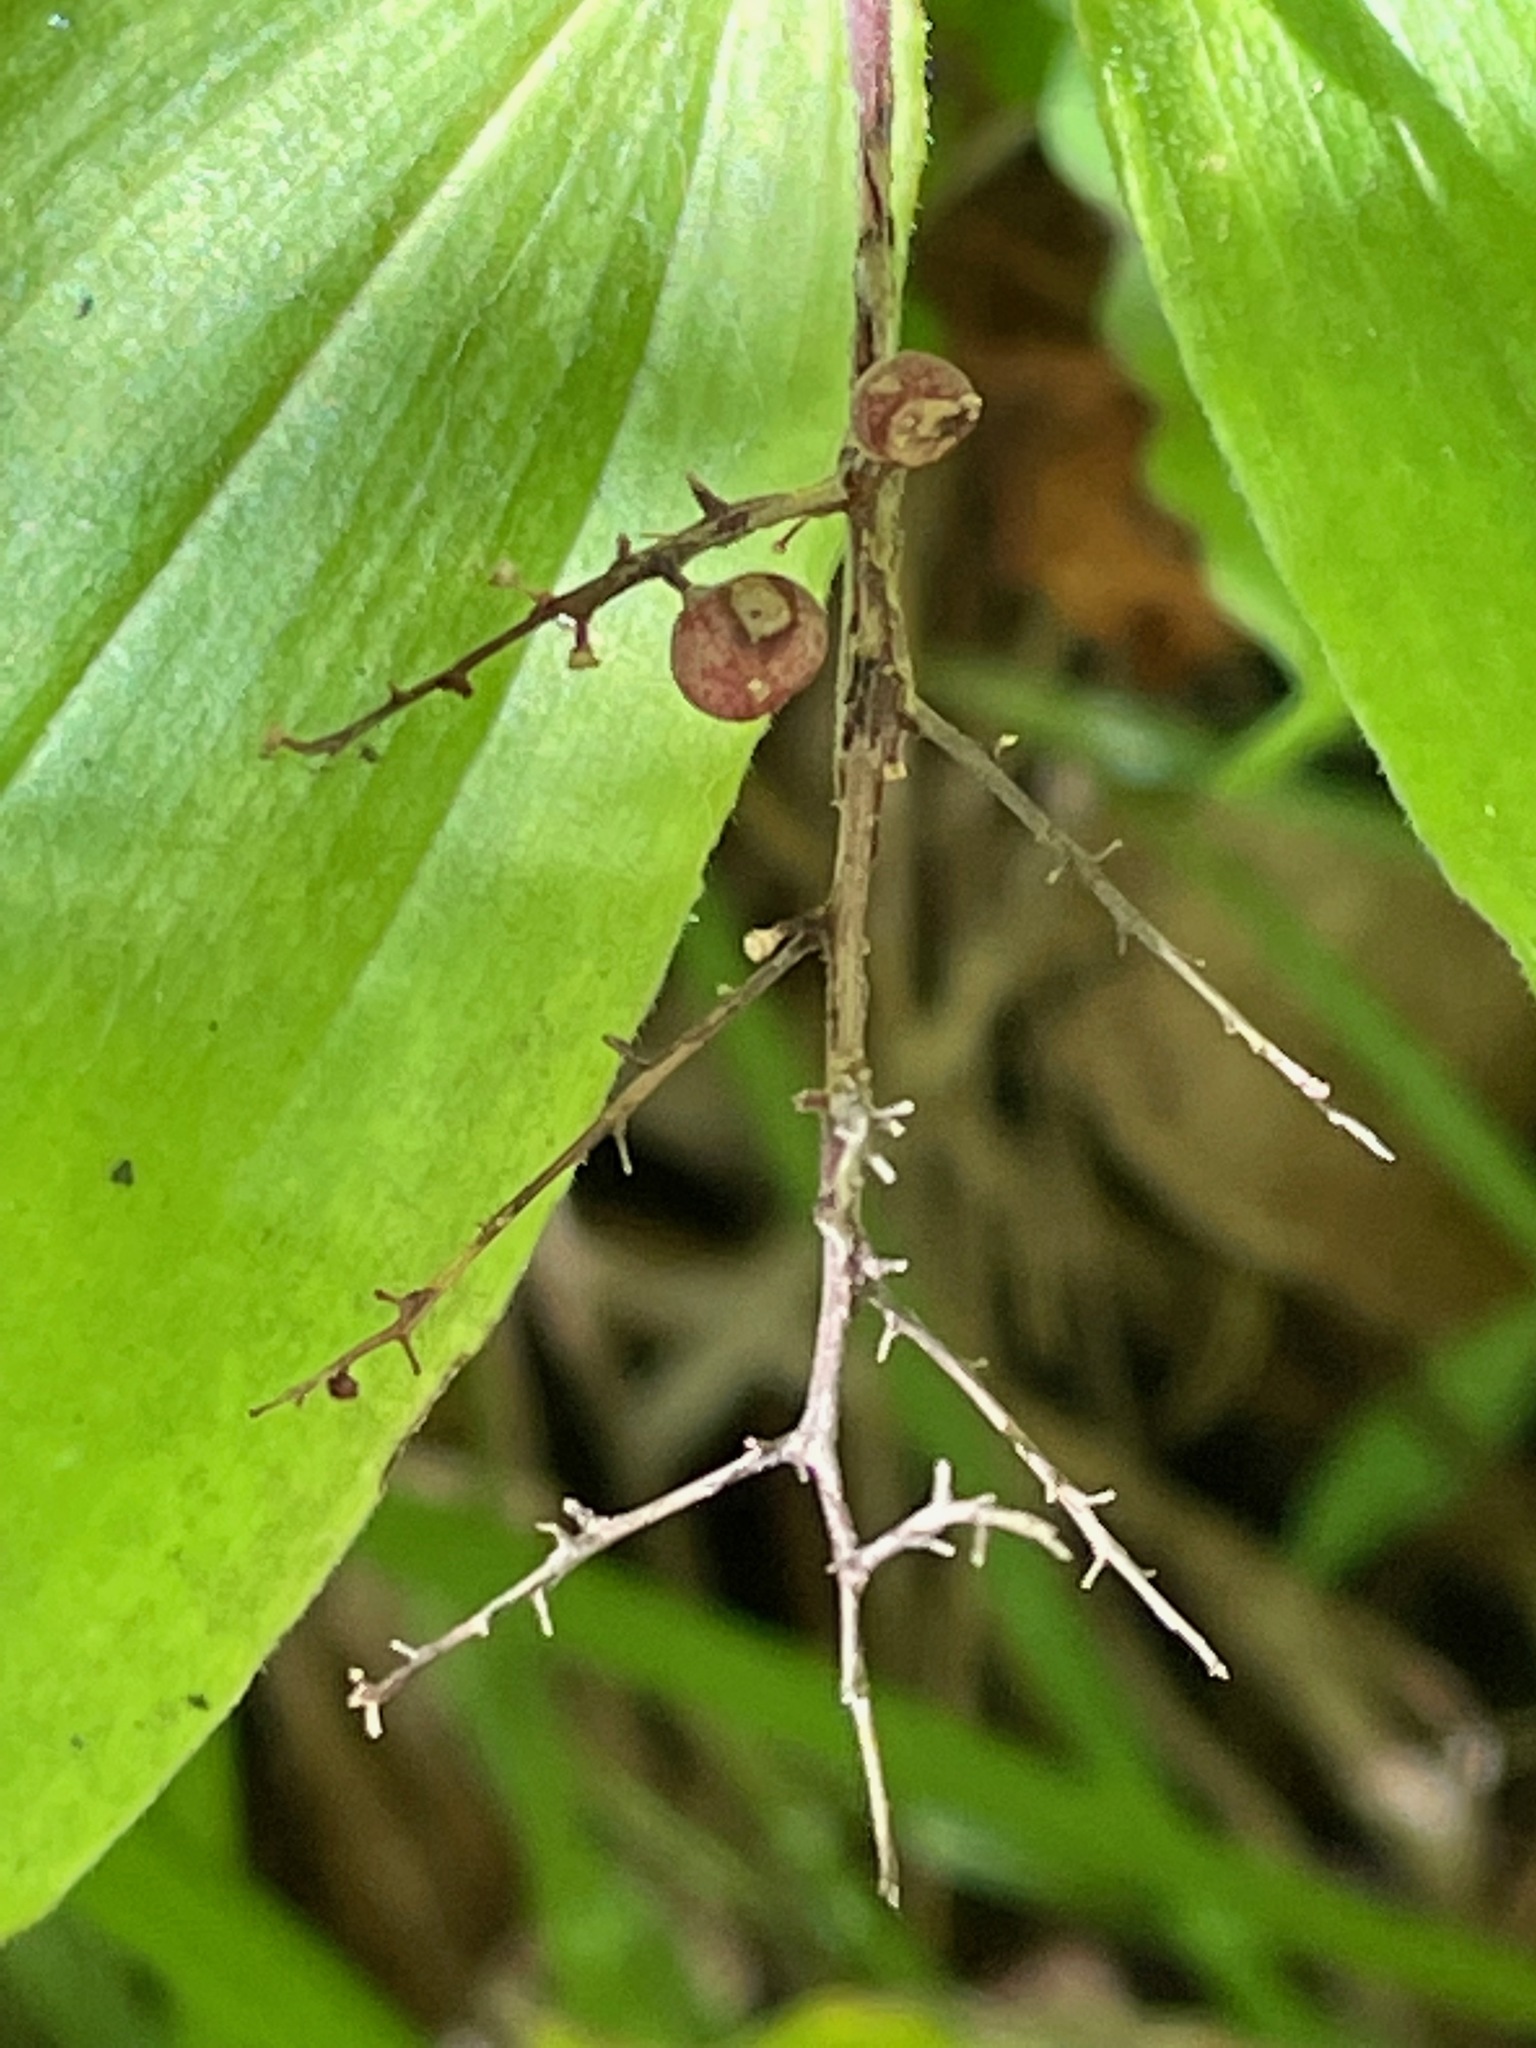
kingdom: Plantae
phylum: Tracheophyta
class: Liliopsida
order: Asparagales
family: Asparagaceae
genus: Maianthemum
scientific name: Maianthemum racemosum
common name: False spikenard
